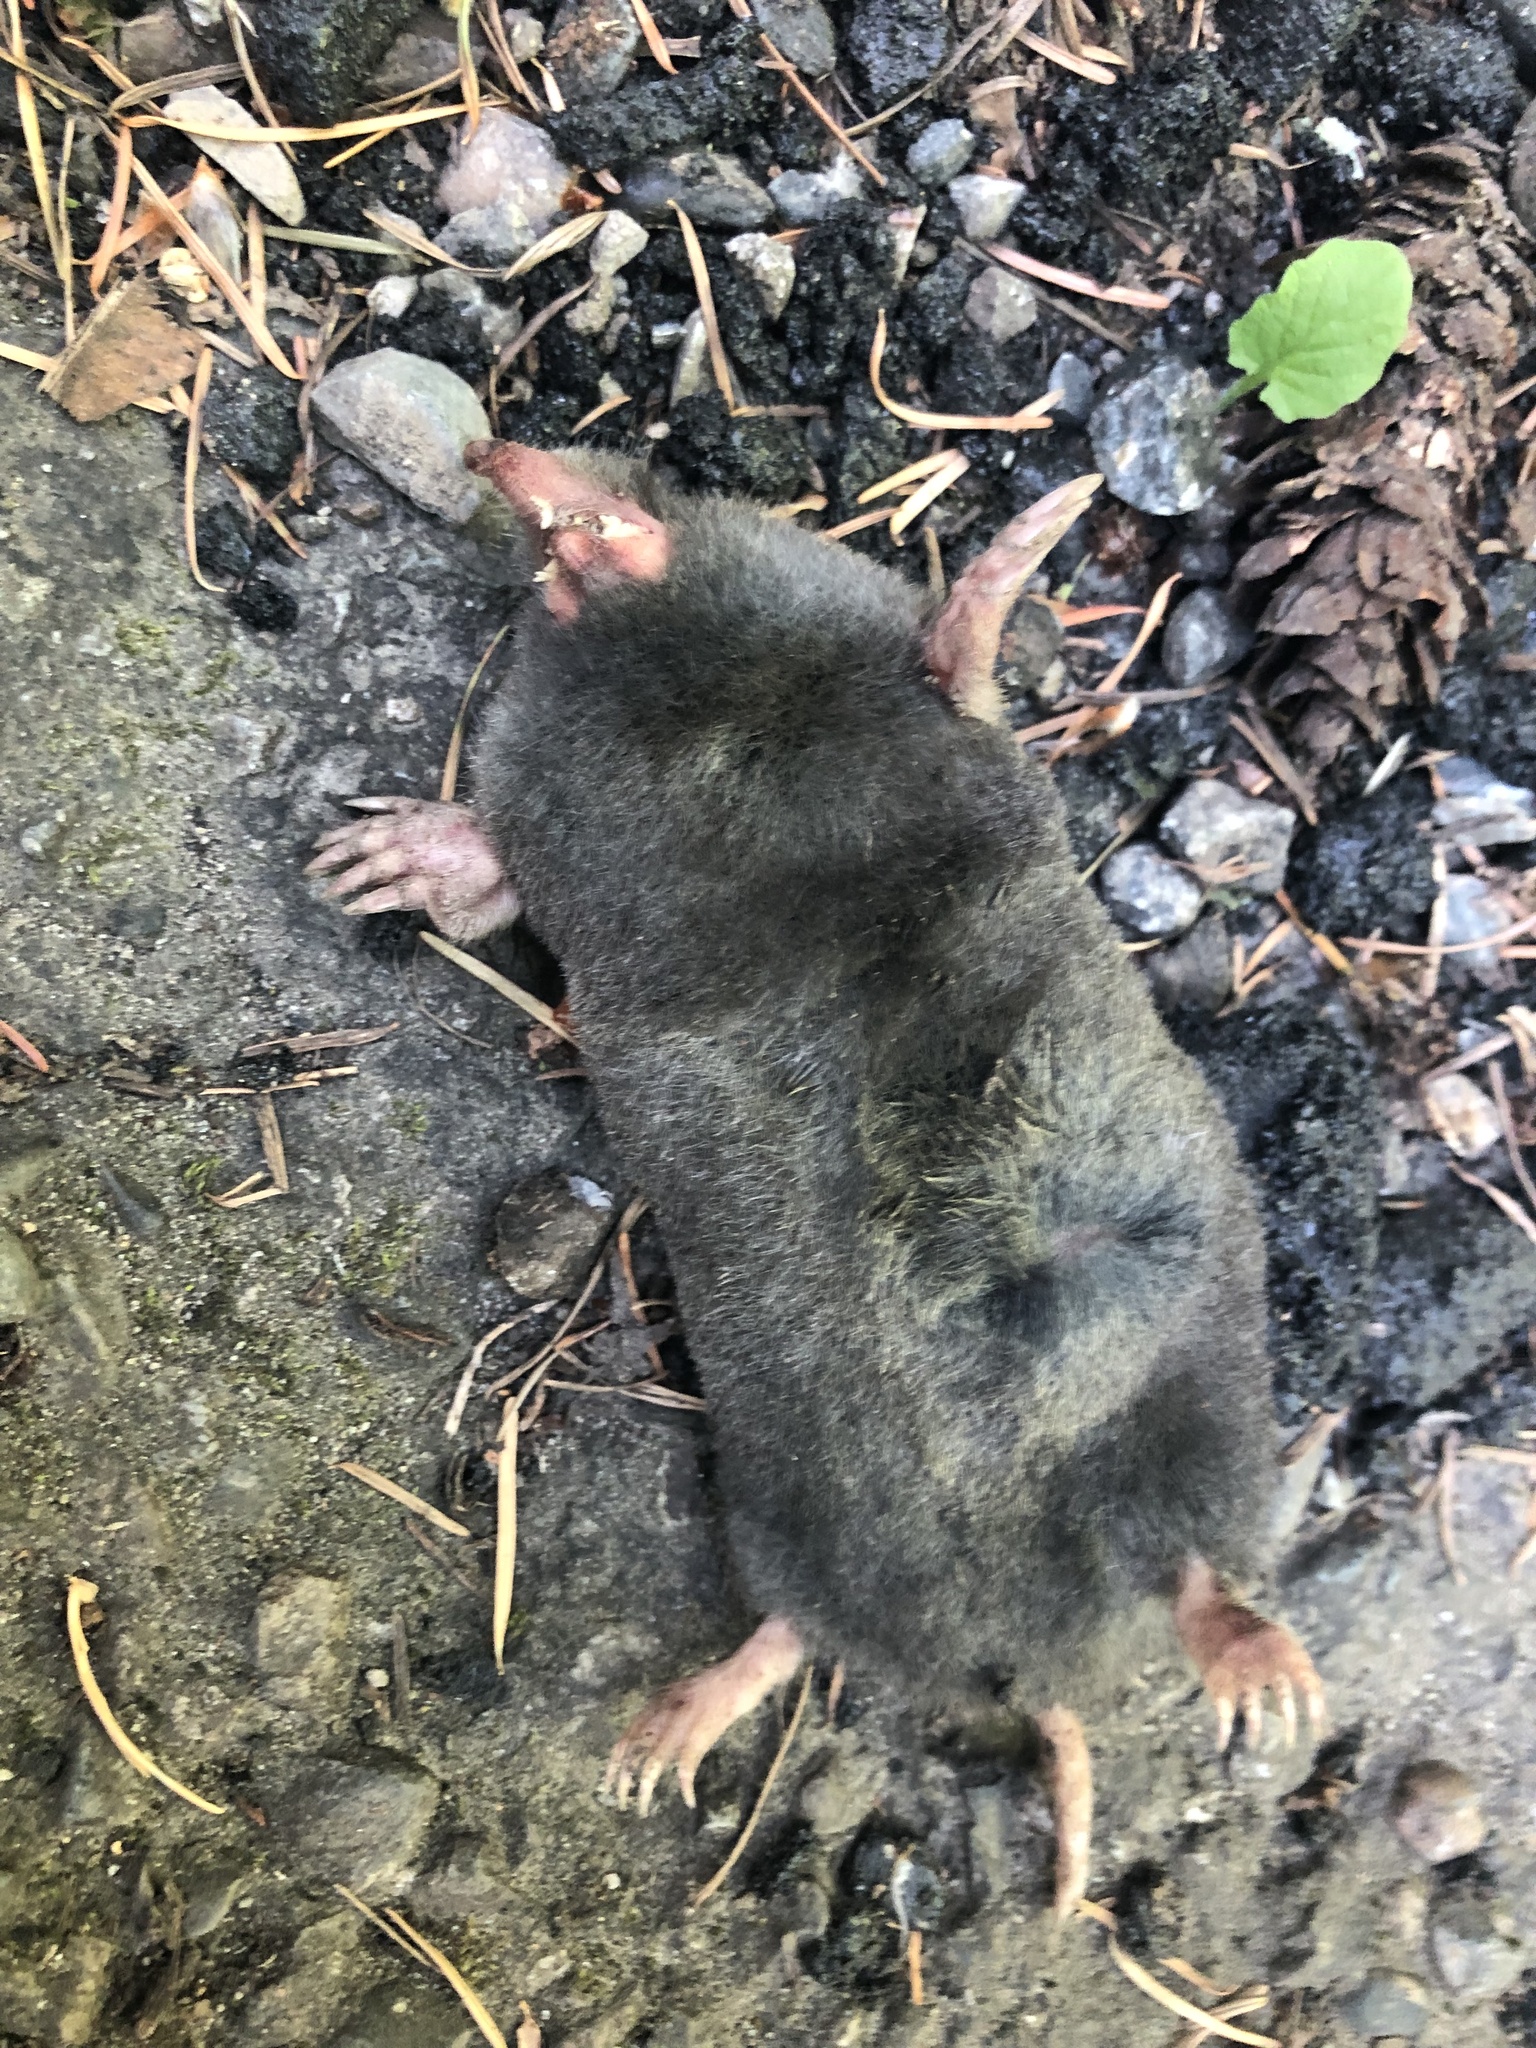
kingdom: Animalia
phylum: Chordata
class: Mammalia
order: Soricomorpha
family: Talpidae
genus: Scapanus
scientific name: Scapanus orarius
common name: Coast mole
